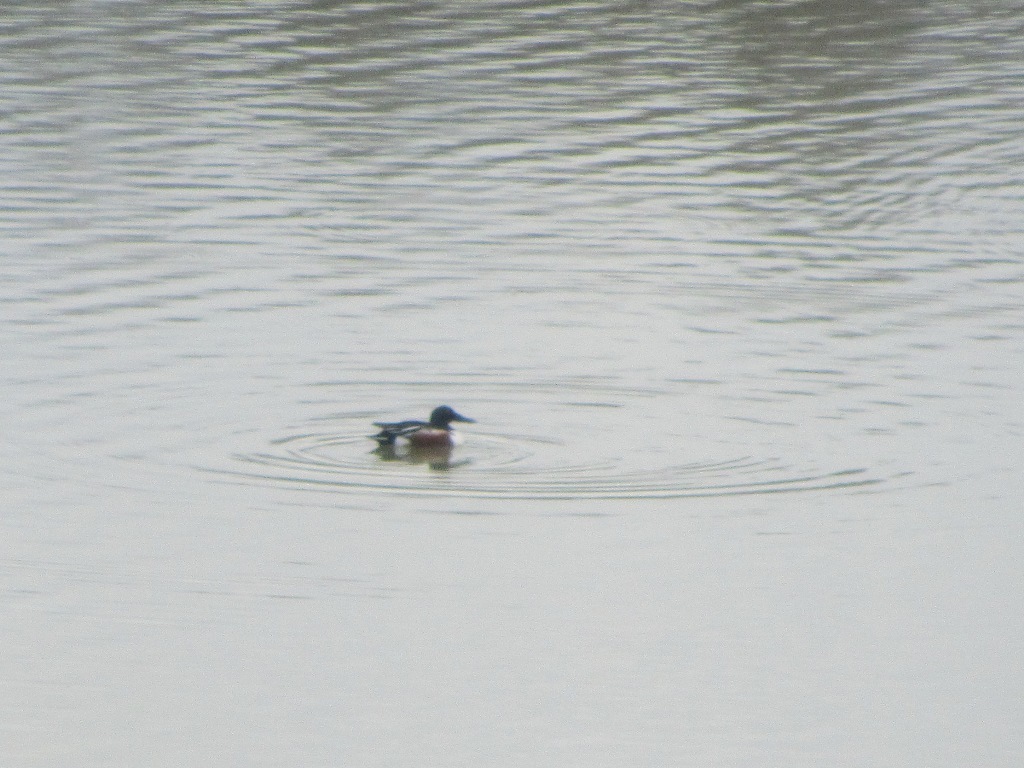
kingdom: Animalia
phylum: Chordata
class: Aves
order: Anseriformes
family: Anatidae
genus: Spatula
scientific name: Spatula clypeata
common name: Northern shoveler
